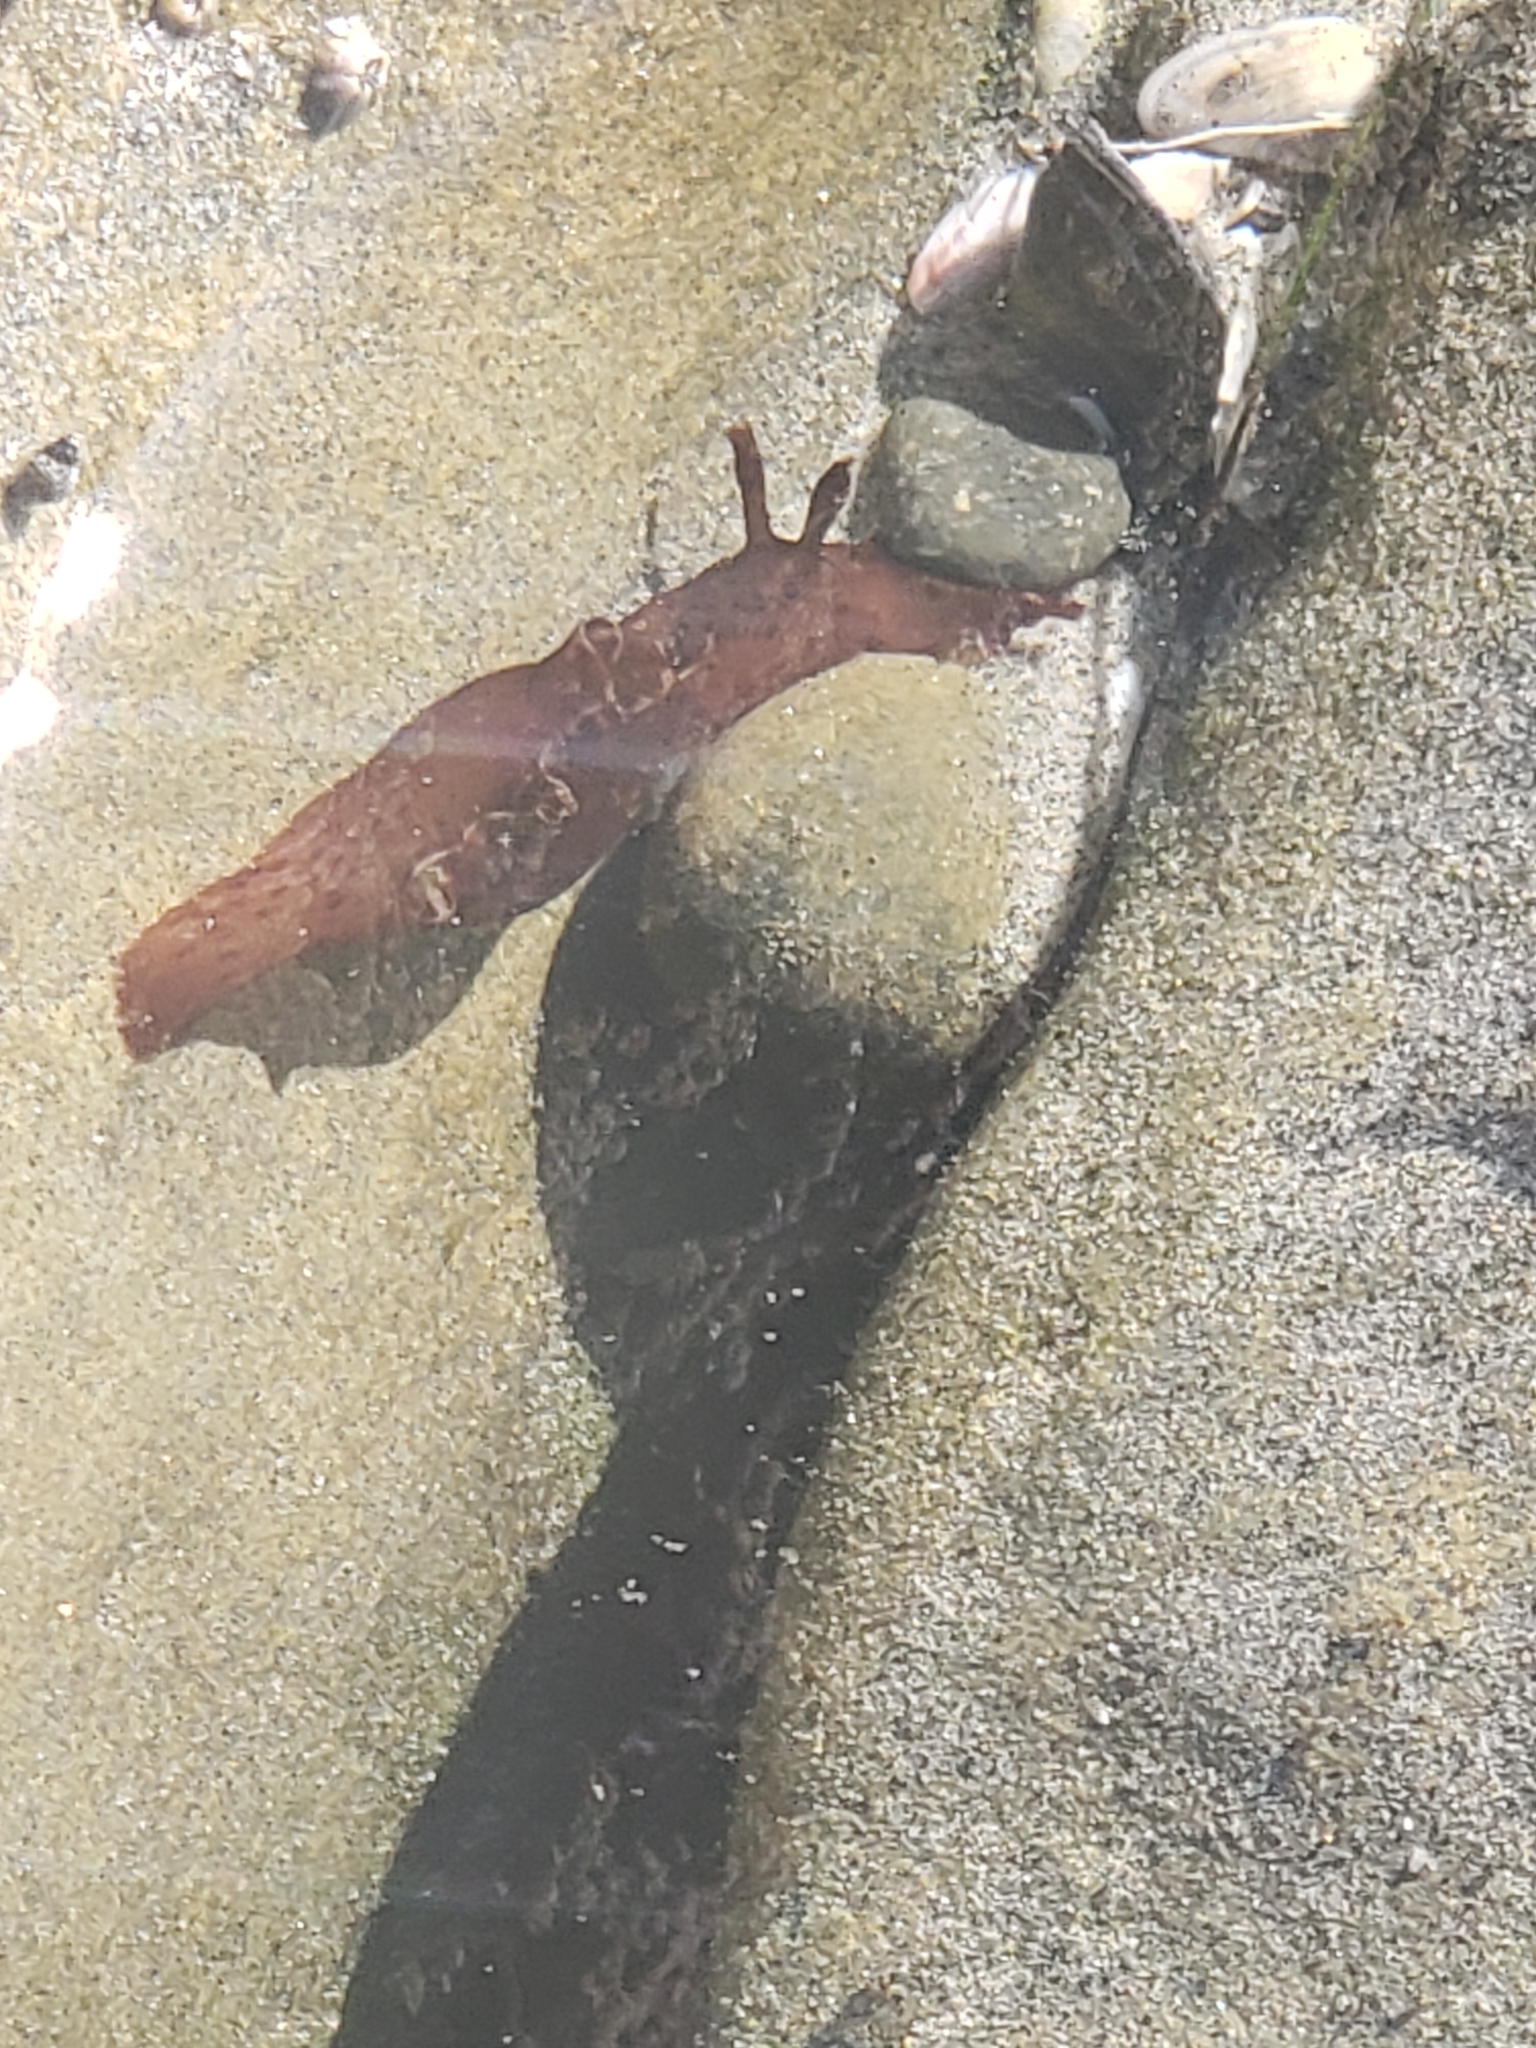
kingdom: Animalia
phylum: Mollusca
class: Gastropoda
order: Aplysiida
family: Aplysiidae
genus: Aplysia
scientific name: Aplysia californica
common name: California seahare
